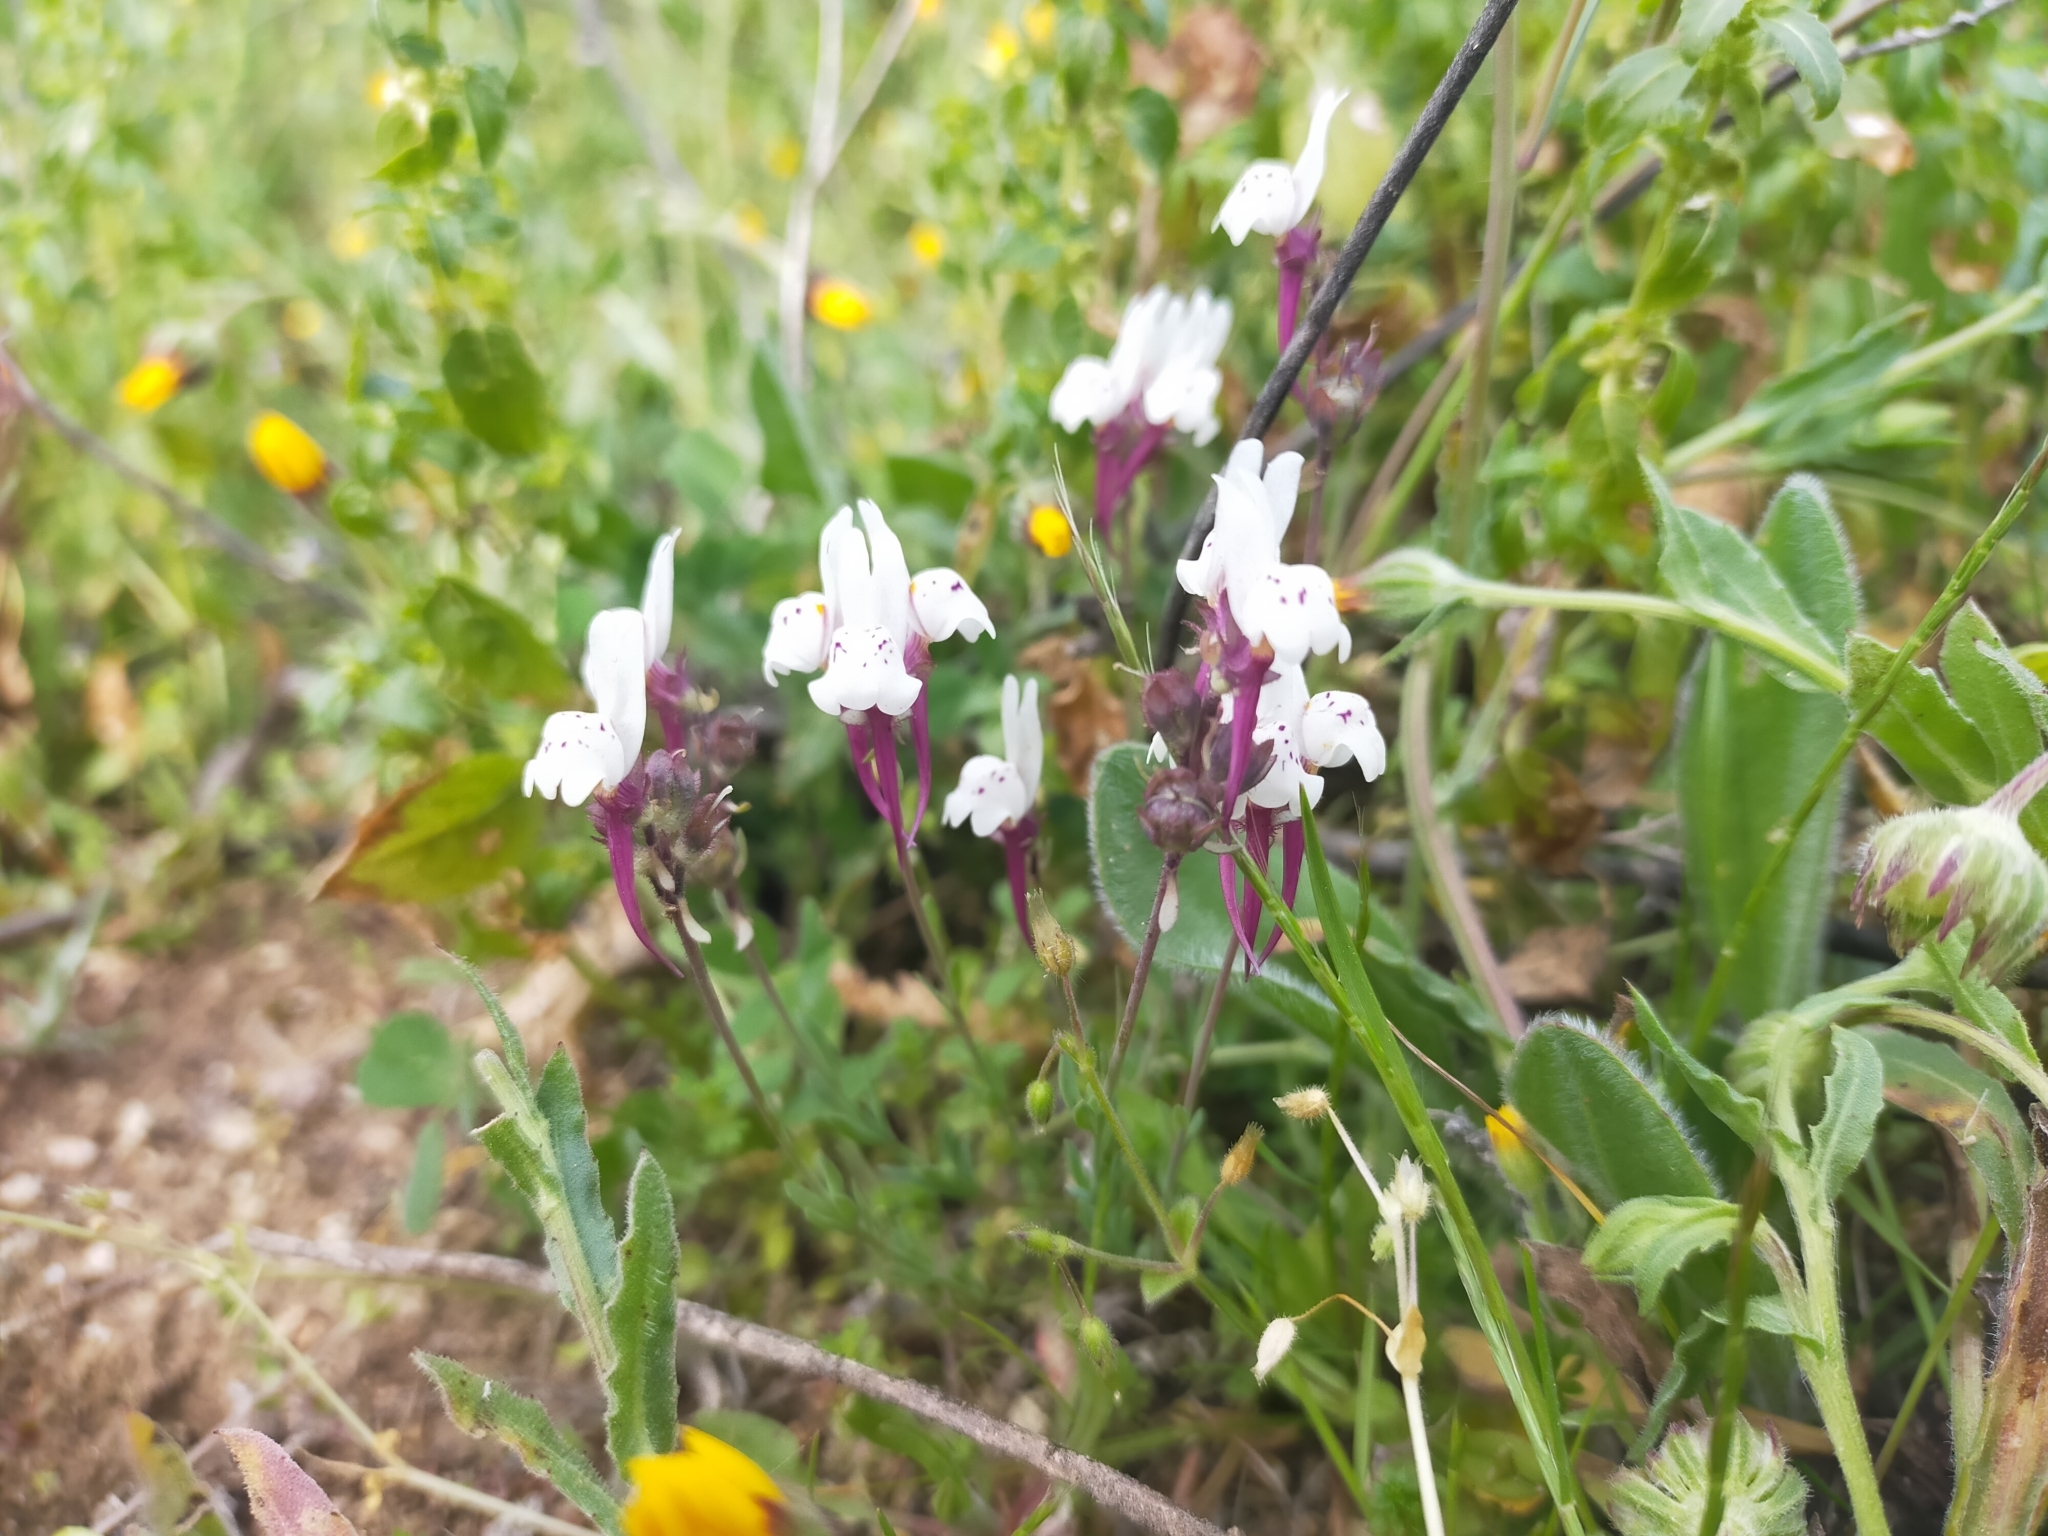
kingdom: Plantae
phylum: Tracheophyta
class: Magnoliopsida
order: Lamiales
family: Plantaginaceae
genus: Linaria
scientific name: Linaria amethystea
